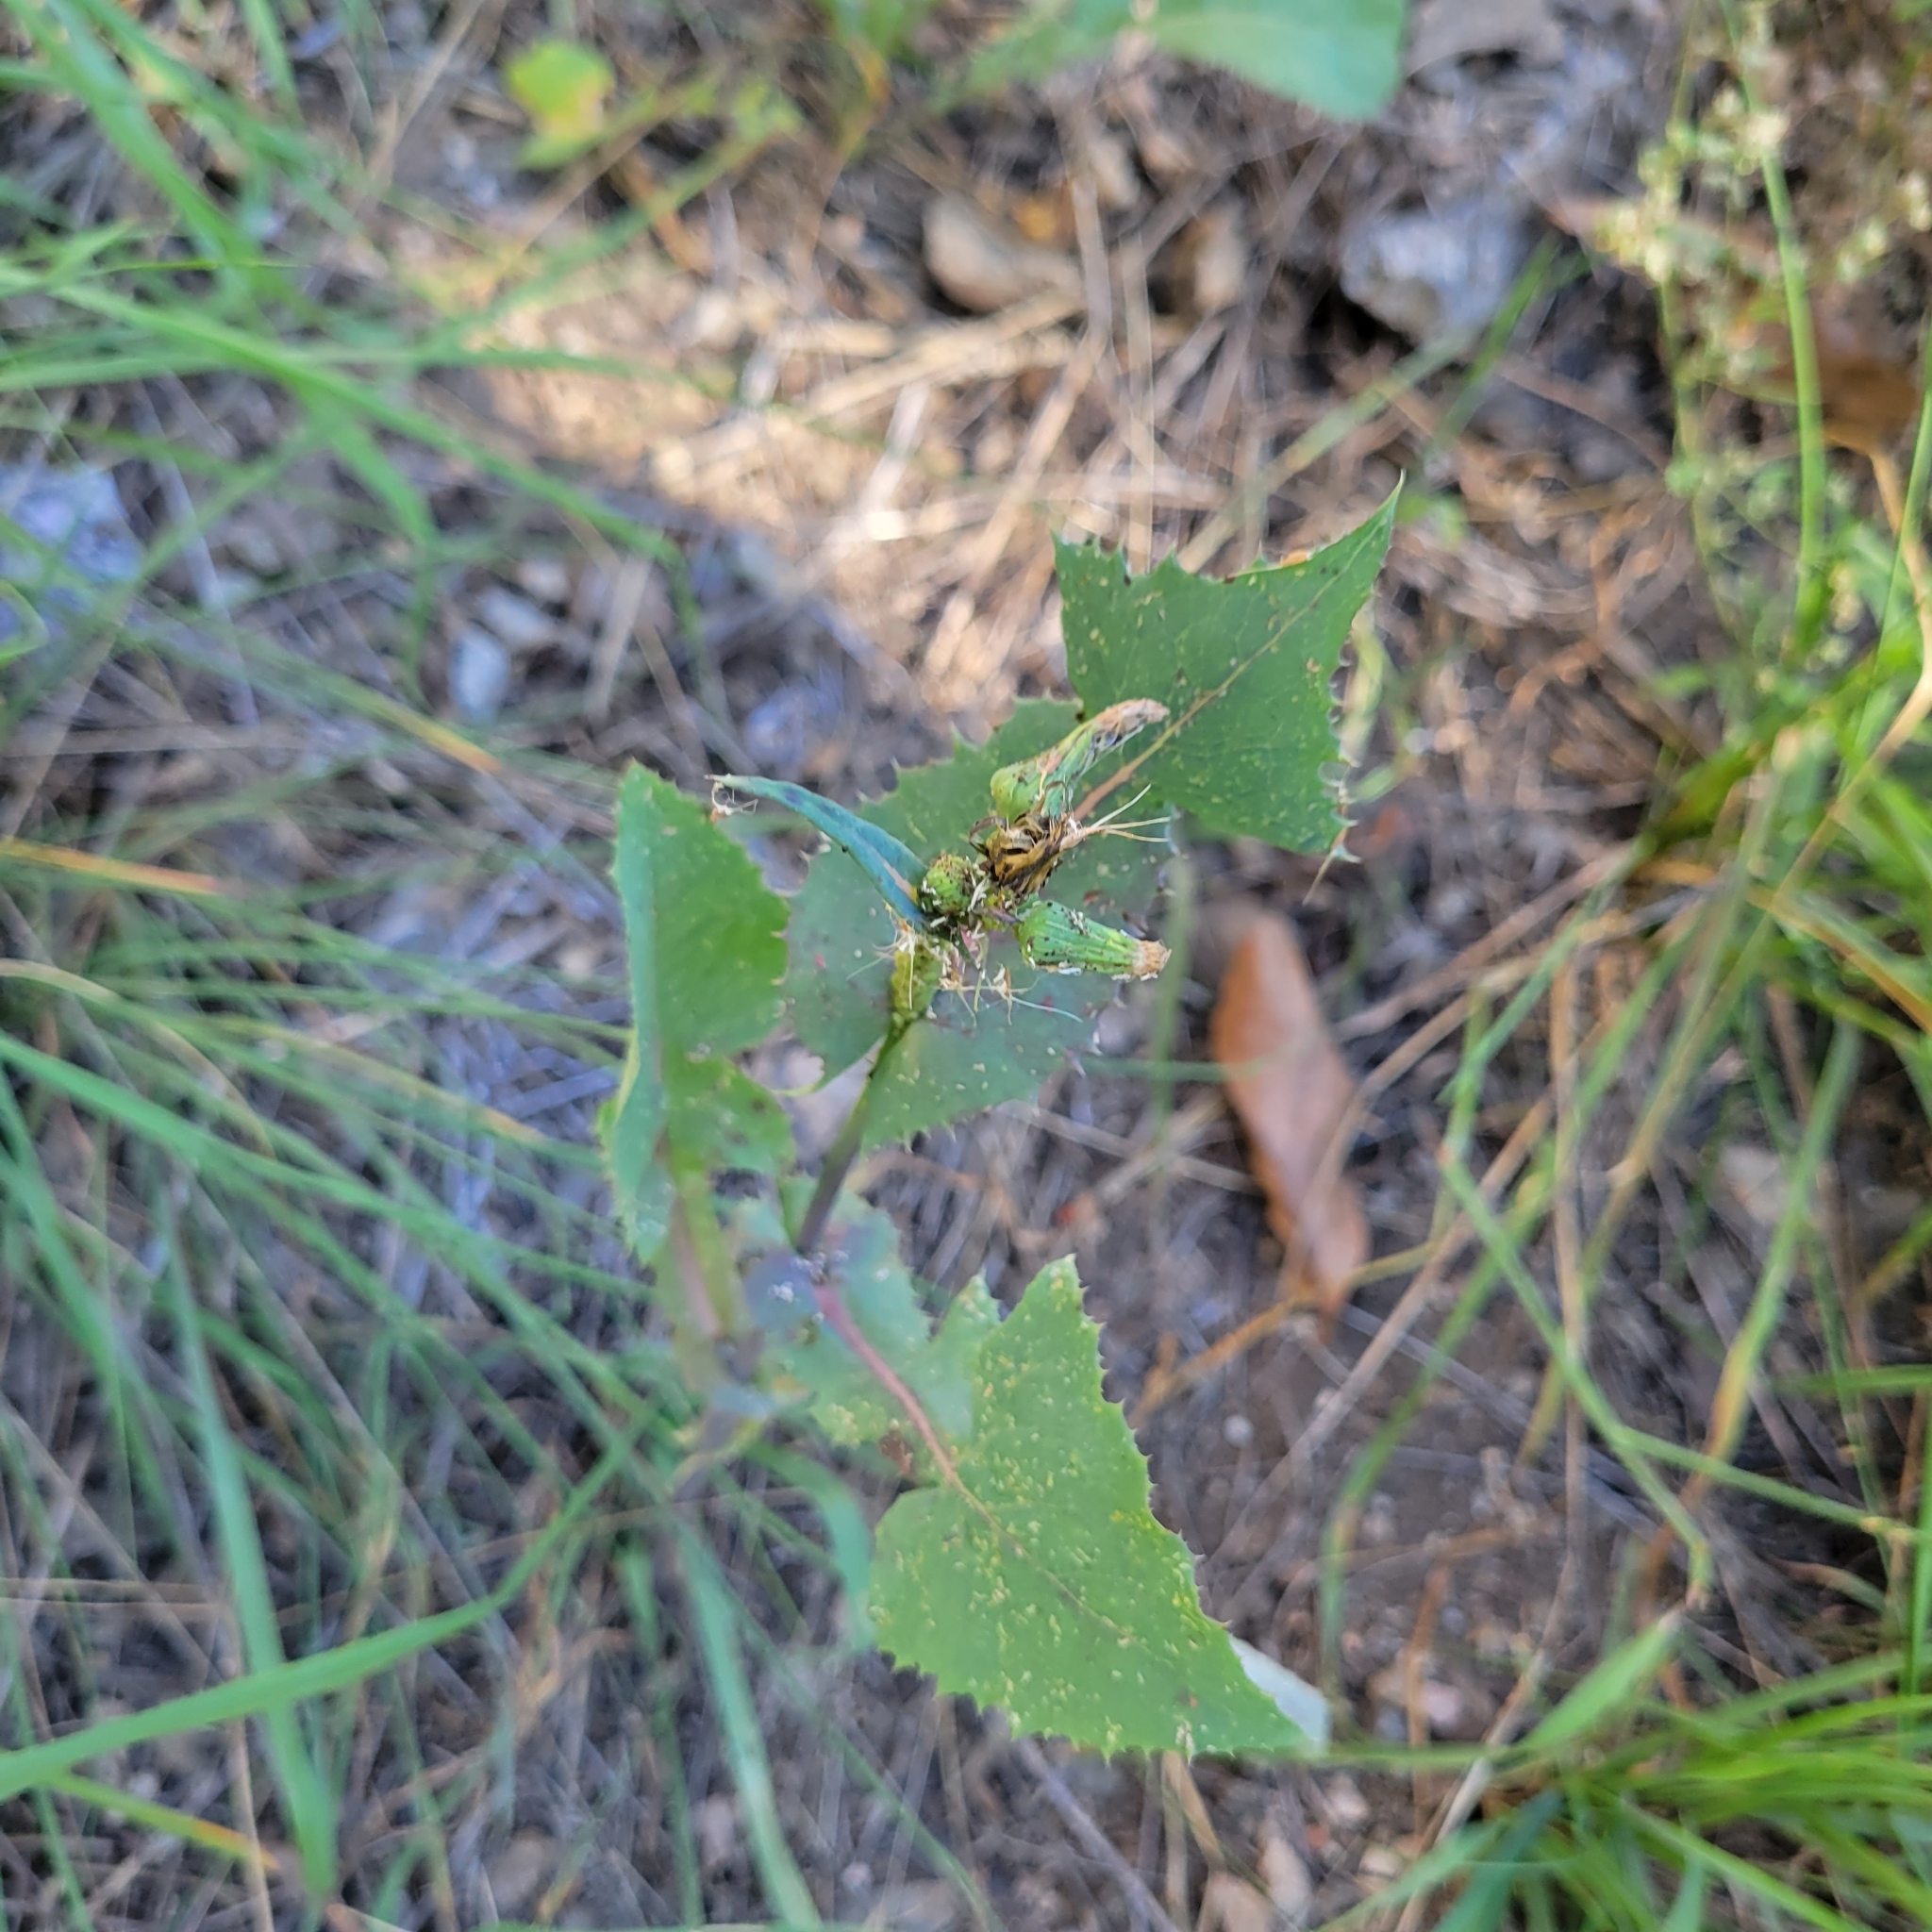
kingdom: Plantae
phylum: Tracheophyta
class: Magnoliopsida
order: Asterales
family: Asteraceae
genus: Sonchus
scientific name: Sonchus oleraceus
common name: Common sowthistle
